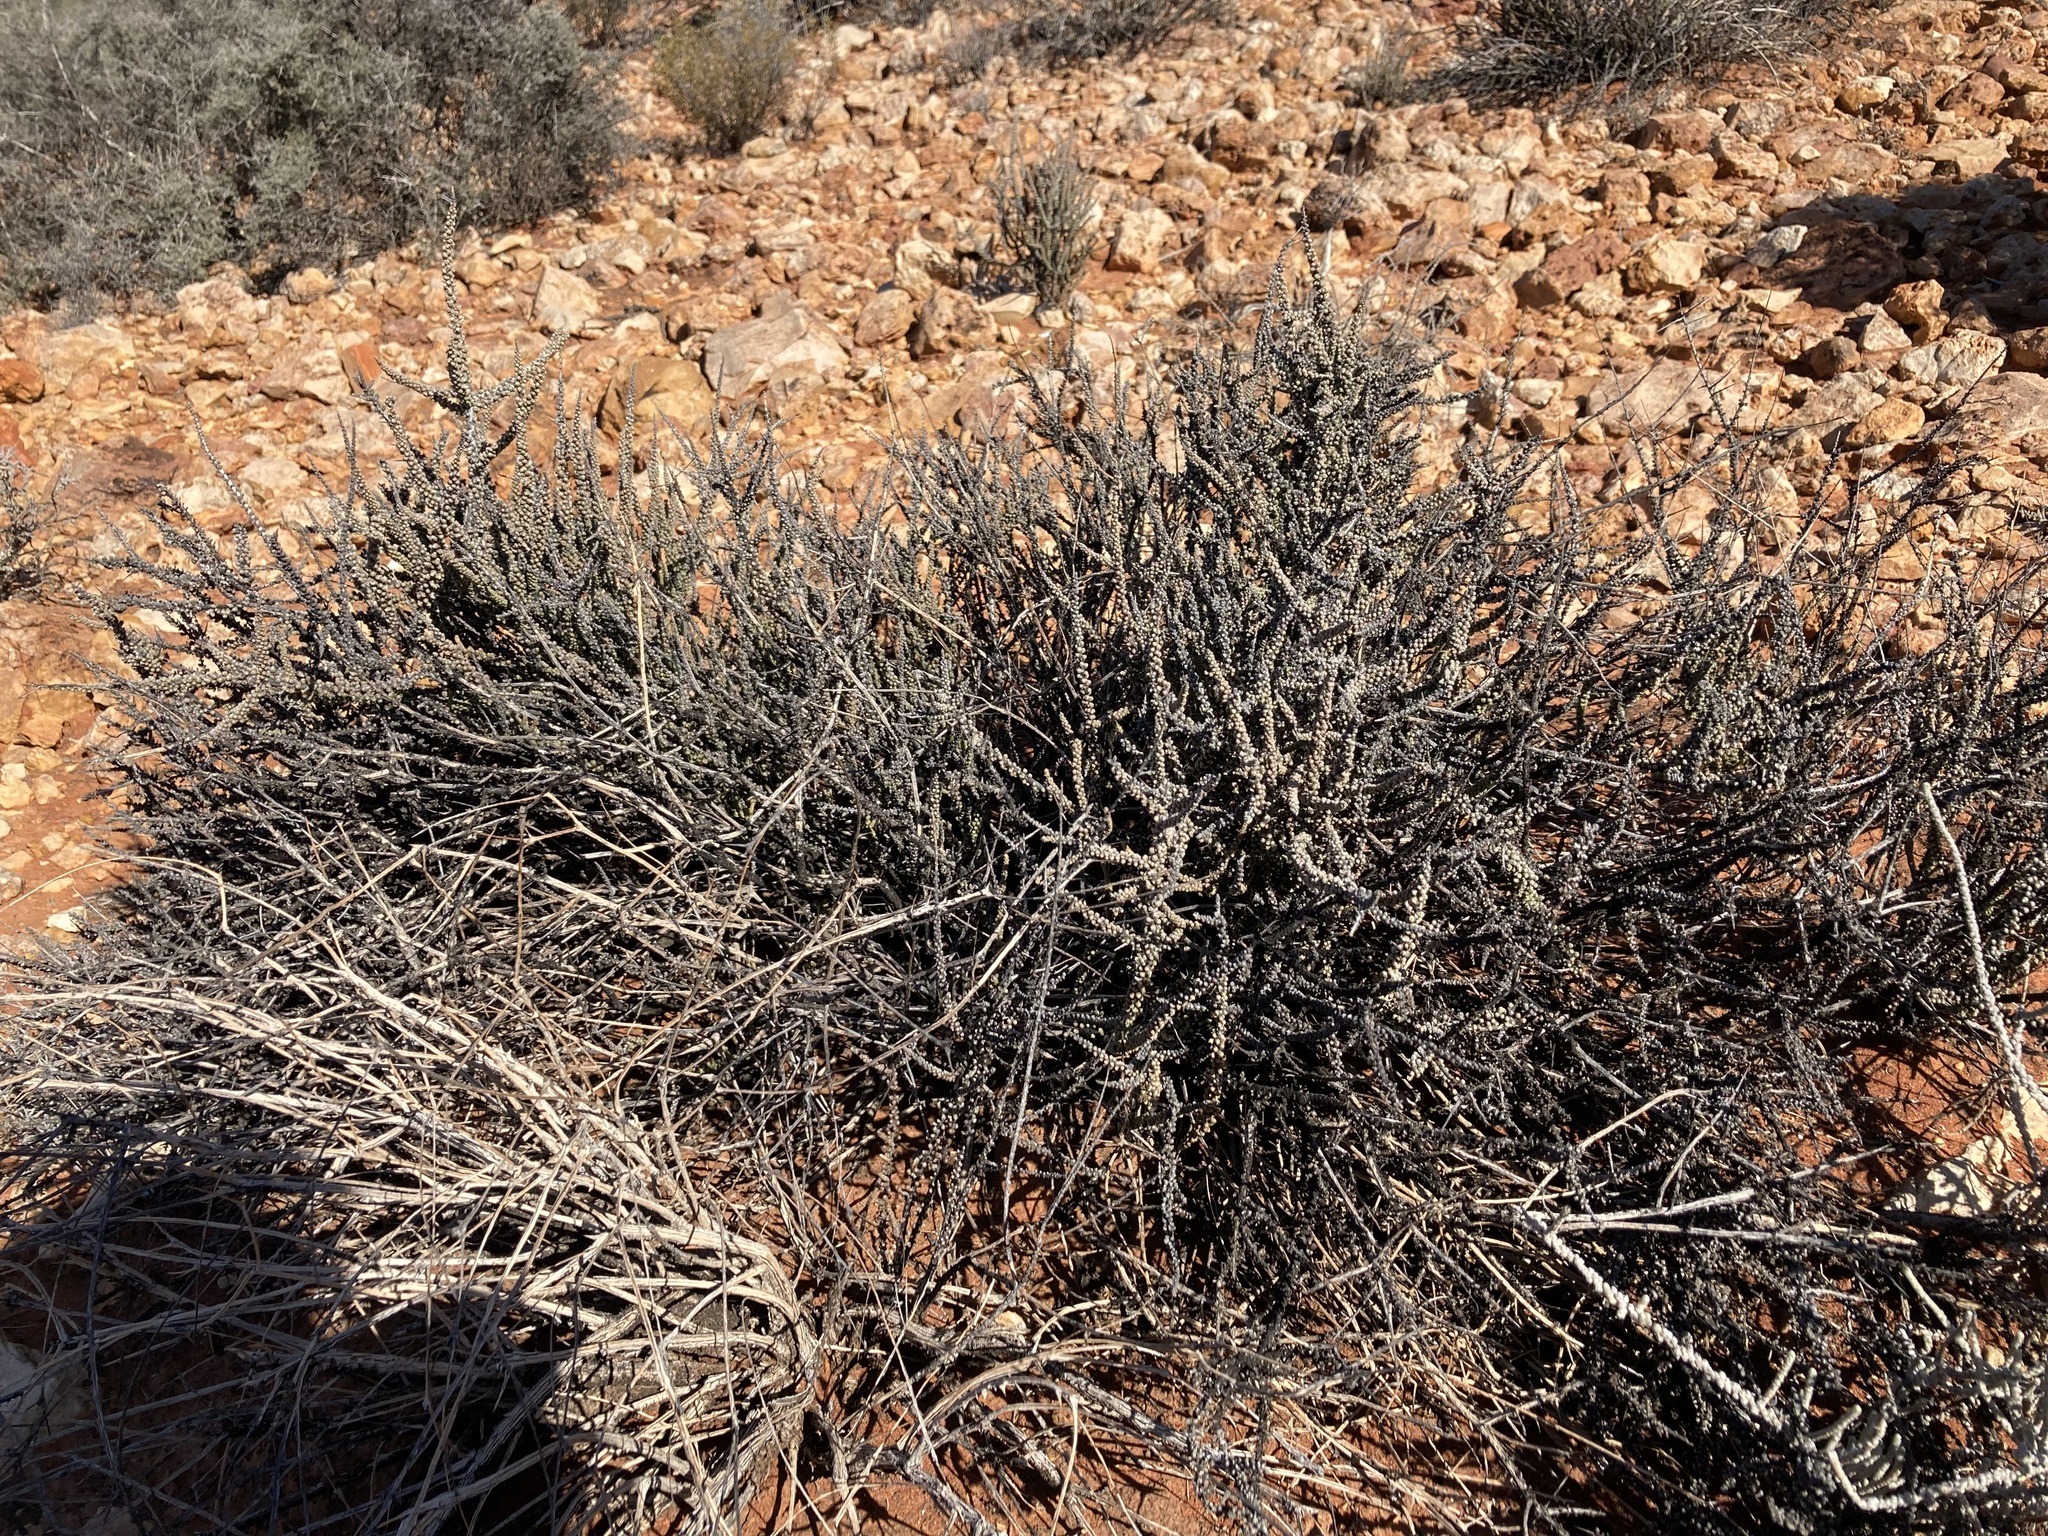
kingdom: Plantae
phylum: Tracheophyta
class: Magnoliopsida
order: Caryophyllales
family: Amaranthaceae
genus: Maireana
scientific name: Maireana glomerifolia
